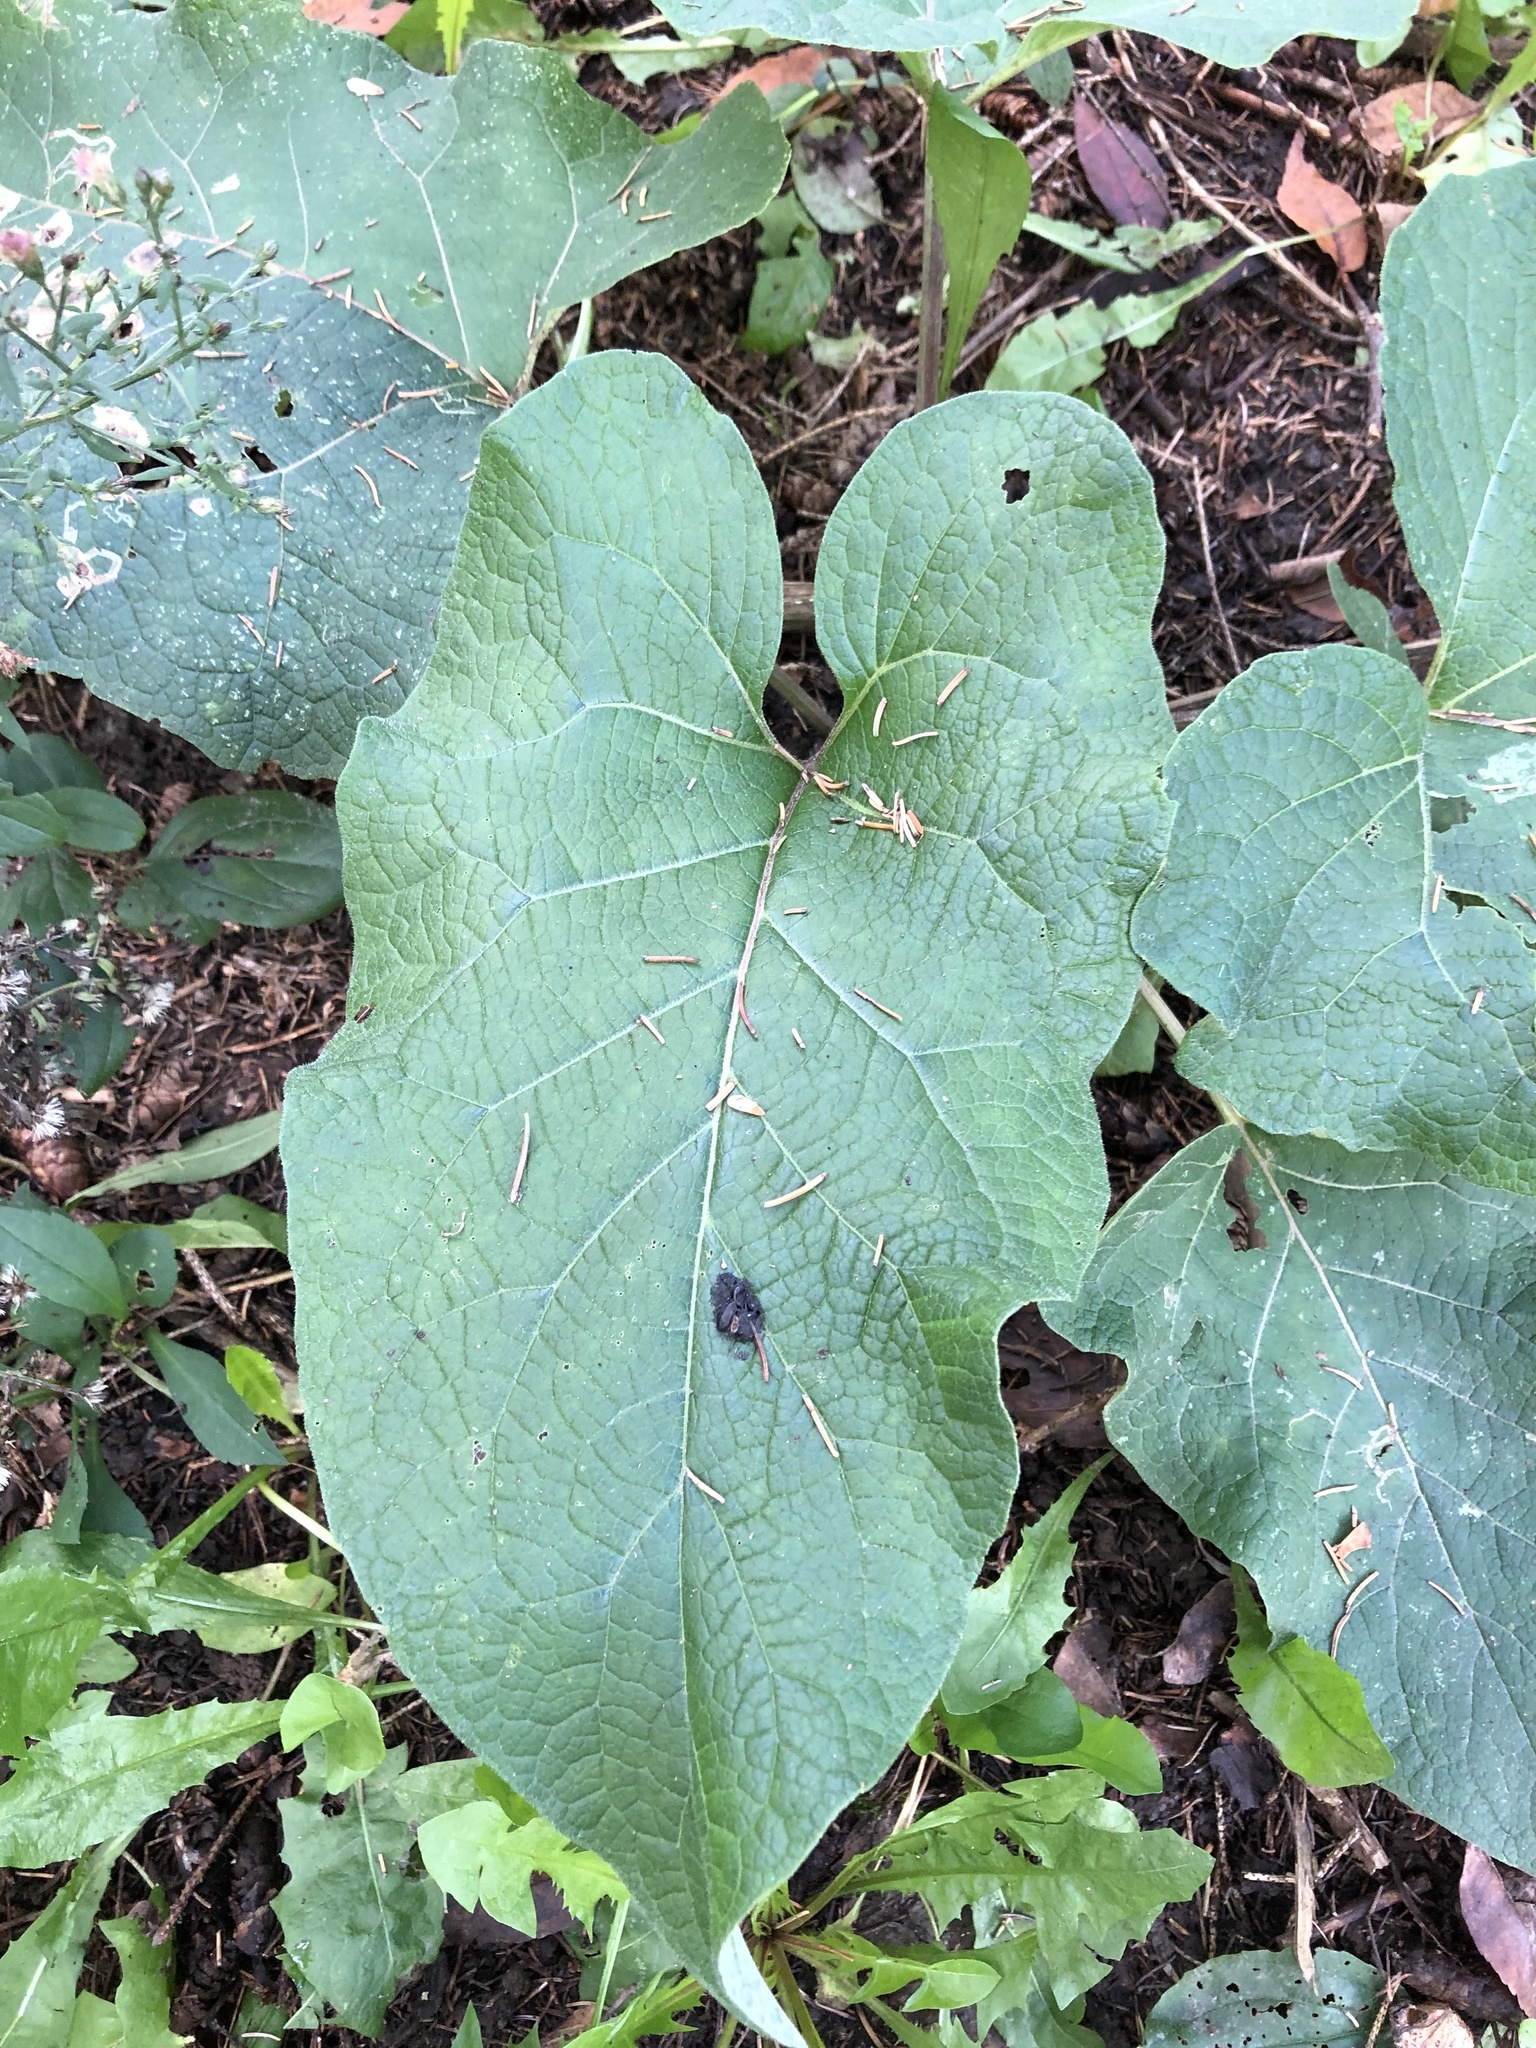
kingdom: Plantae
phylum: Tracheophyta
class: Magnoliopsida
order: Asterales
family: Asteraceae
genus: Arctium
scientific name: Arctium
